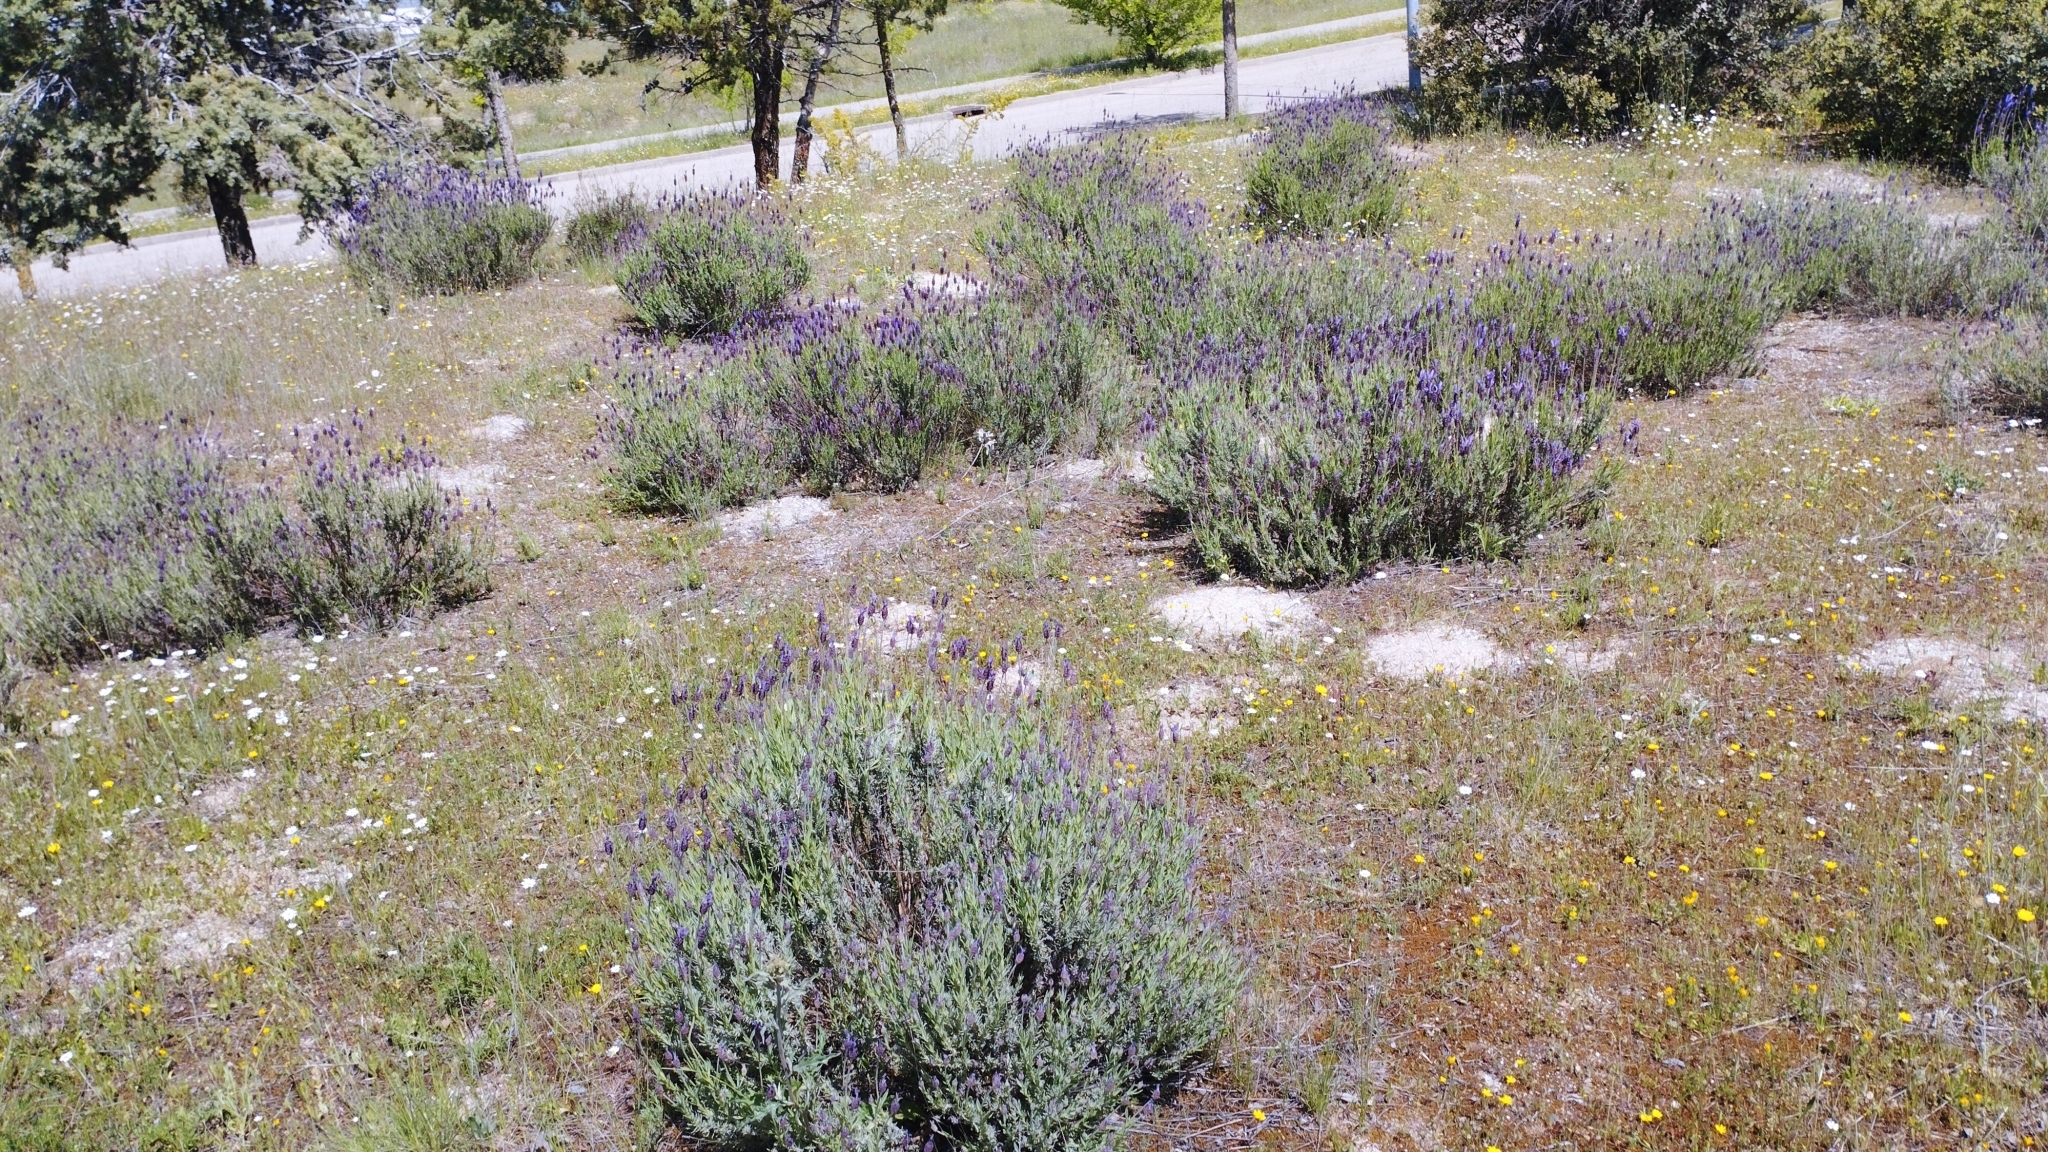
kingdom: Plantae
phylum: Tracheophyta
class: Magnoliopsida
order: Lamiales
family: Lamiaceae
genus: Lavandula
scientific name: Lavandula pedunculata
